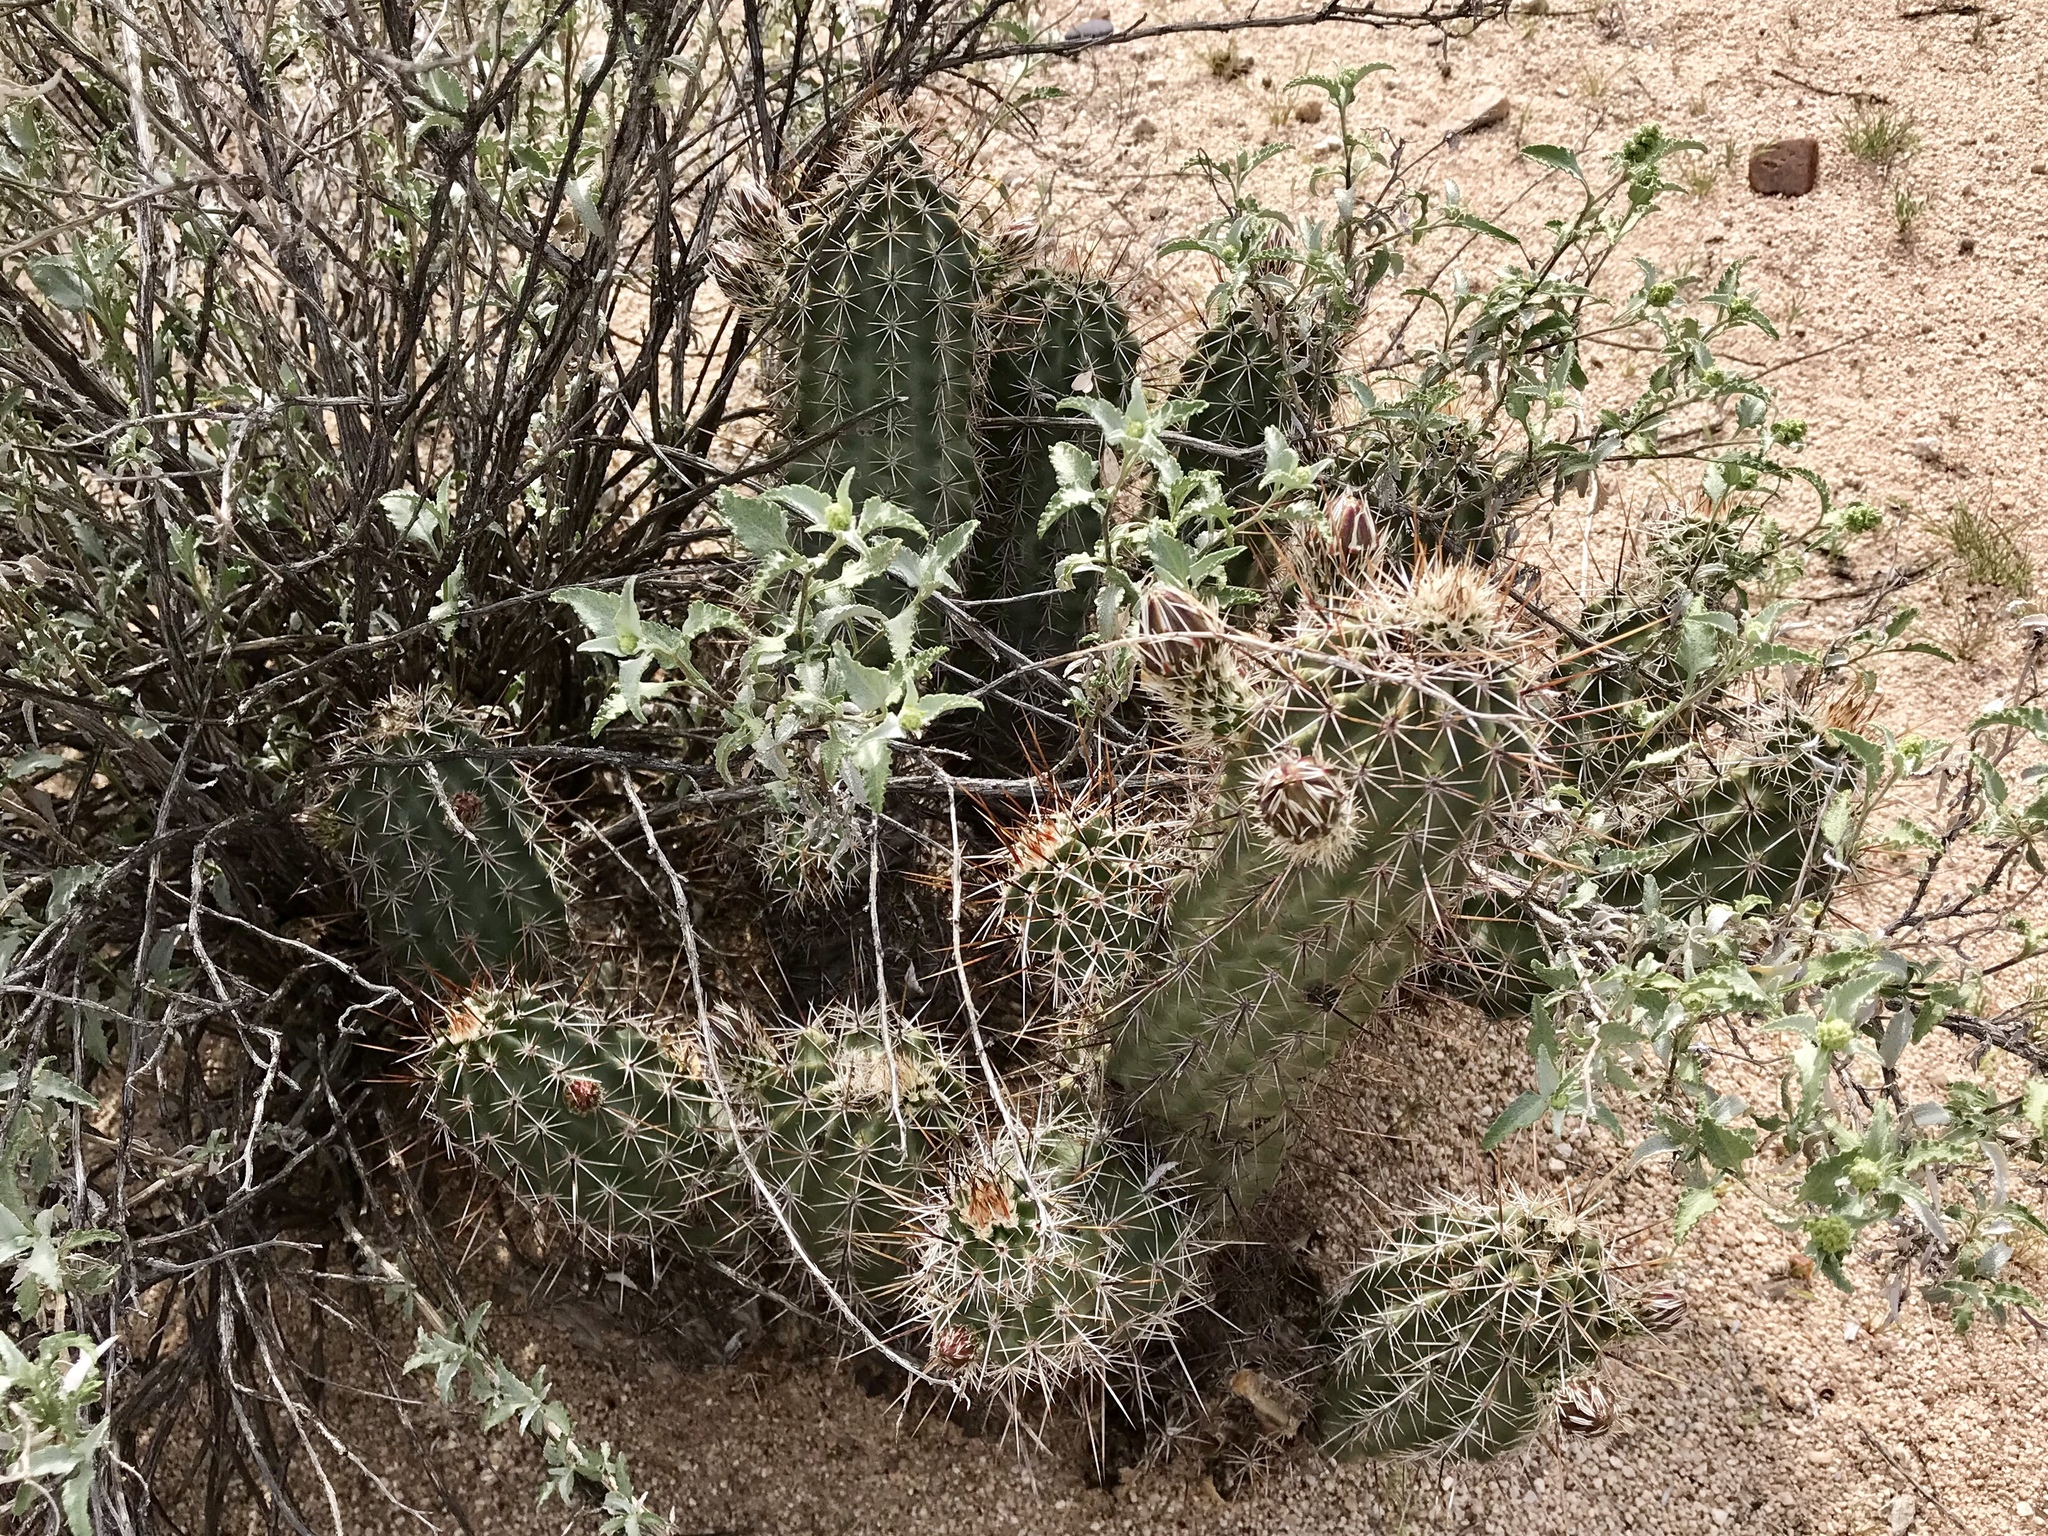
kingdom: Plantae
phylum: Tracheophyta
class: Magnoliopsida
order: Caryophyllales
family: Cactaceae
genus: Echinocereus
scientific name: Echinocereus fasciculatus
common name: Bundle hedgehog
